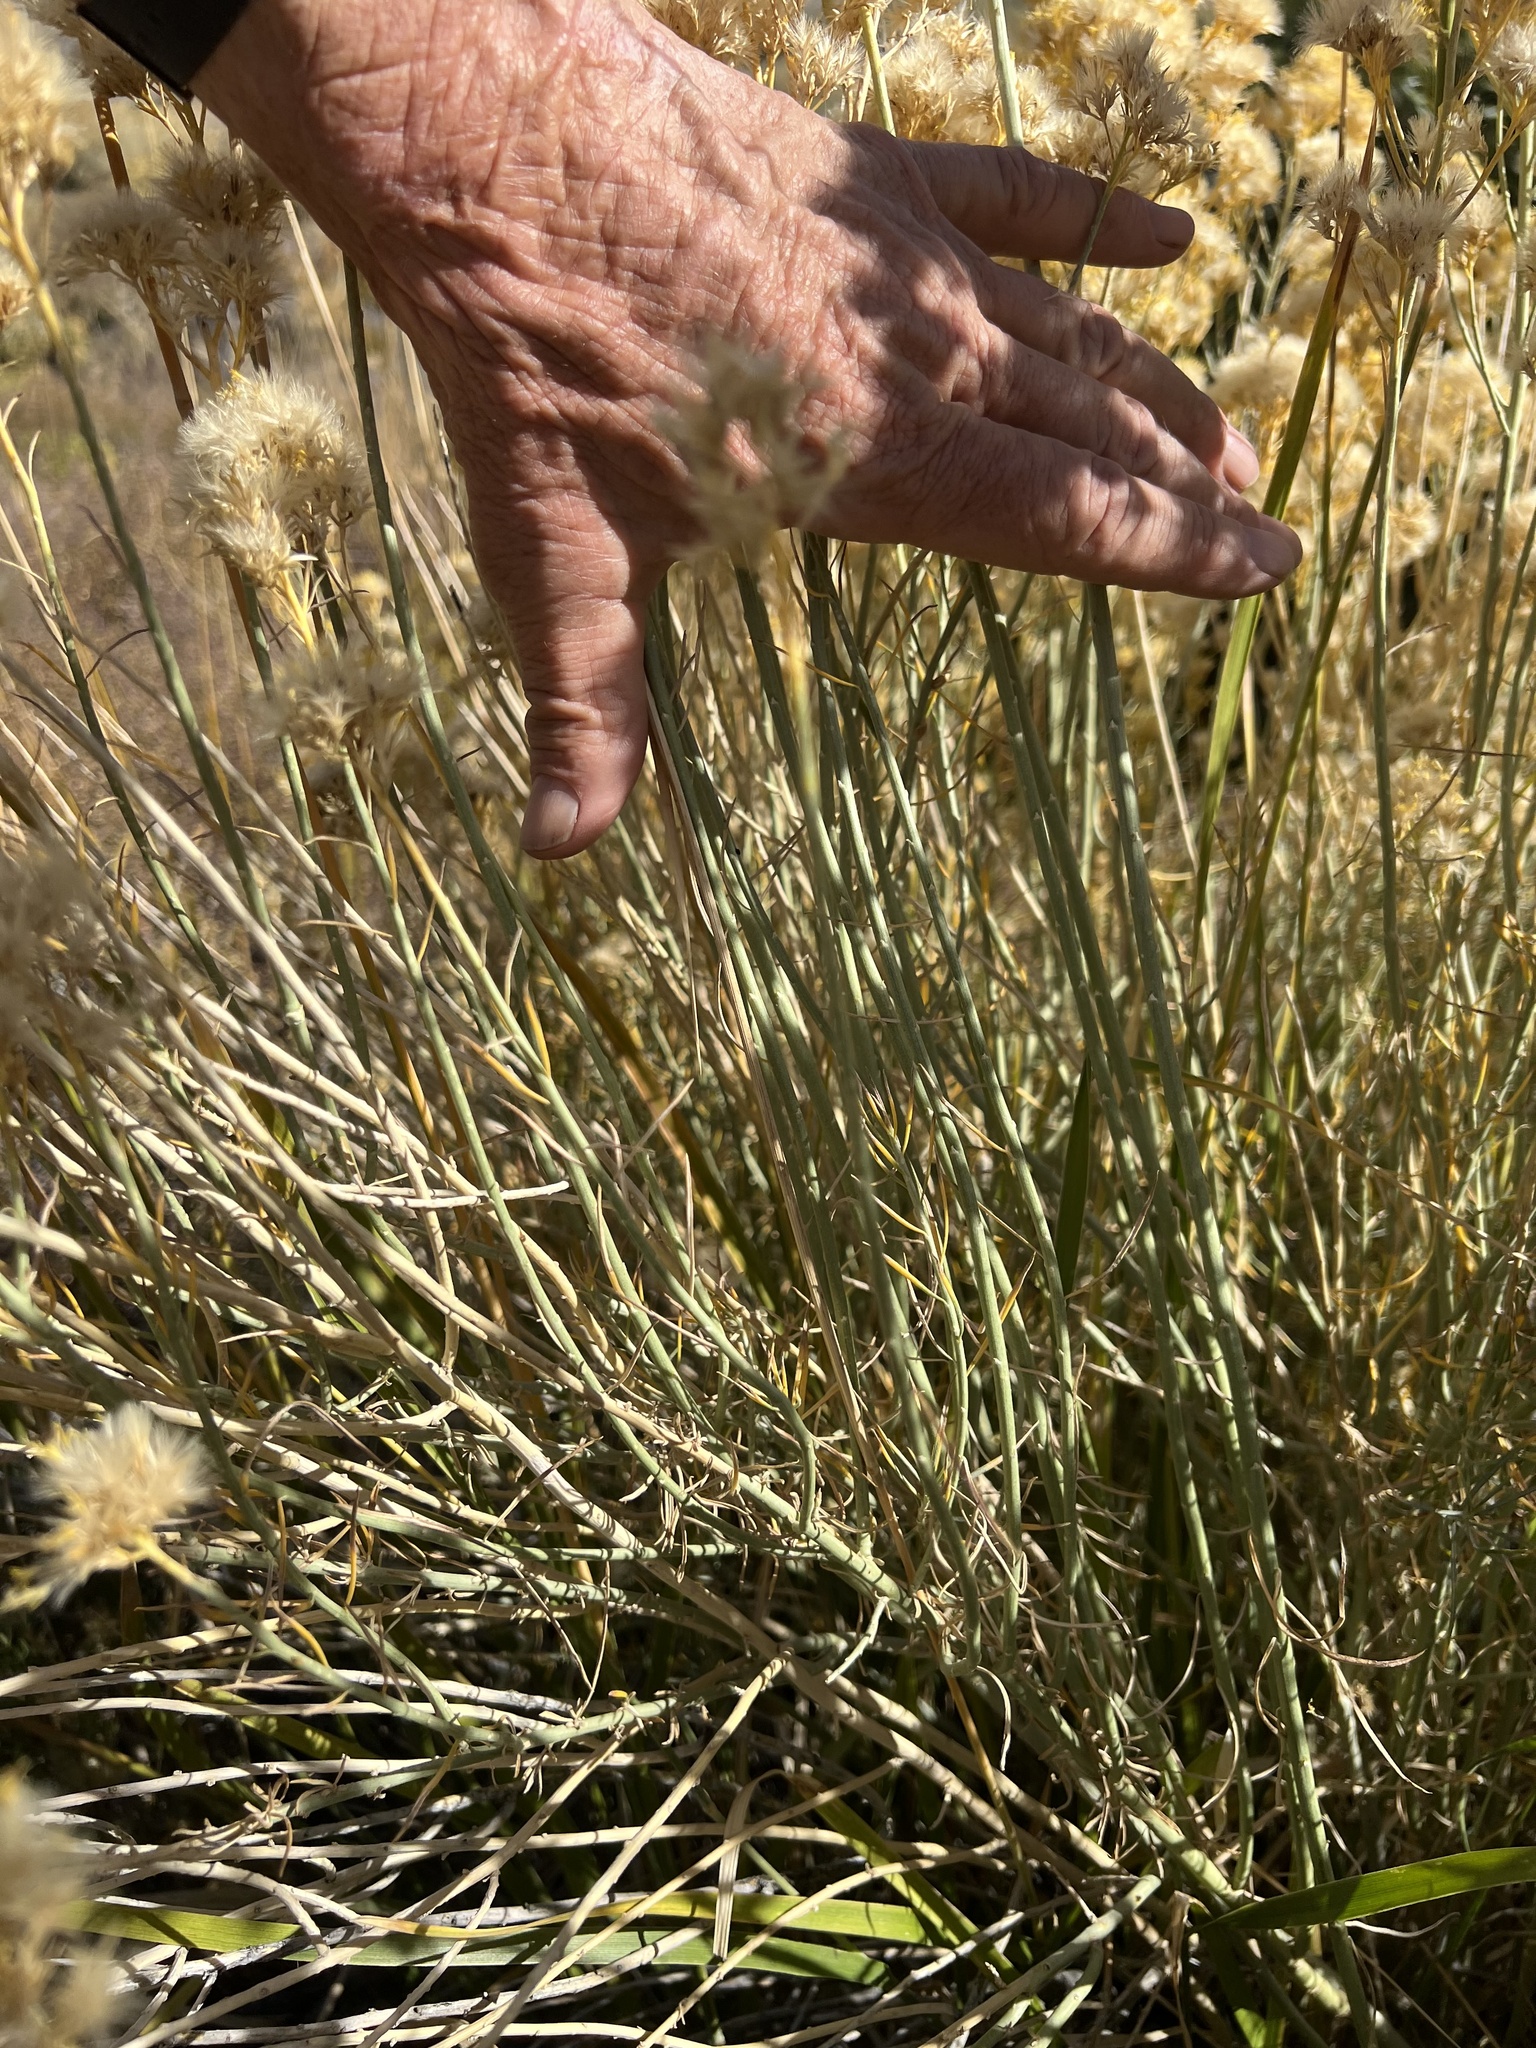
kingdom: Plantae
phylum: Tracheophyta
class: Magnoliopsida
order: Asterales
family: Asteraceae
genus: Ericameria
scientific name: Ericameria nauseosa
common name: Rubber rabbitbrush
